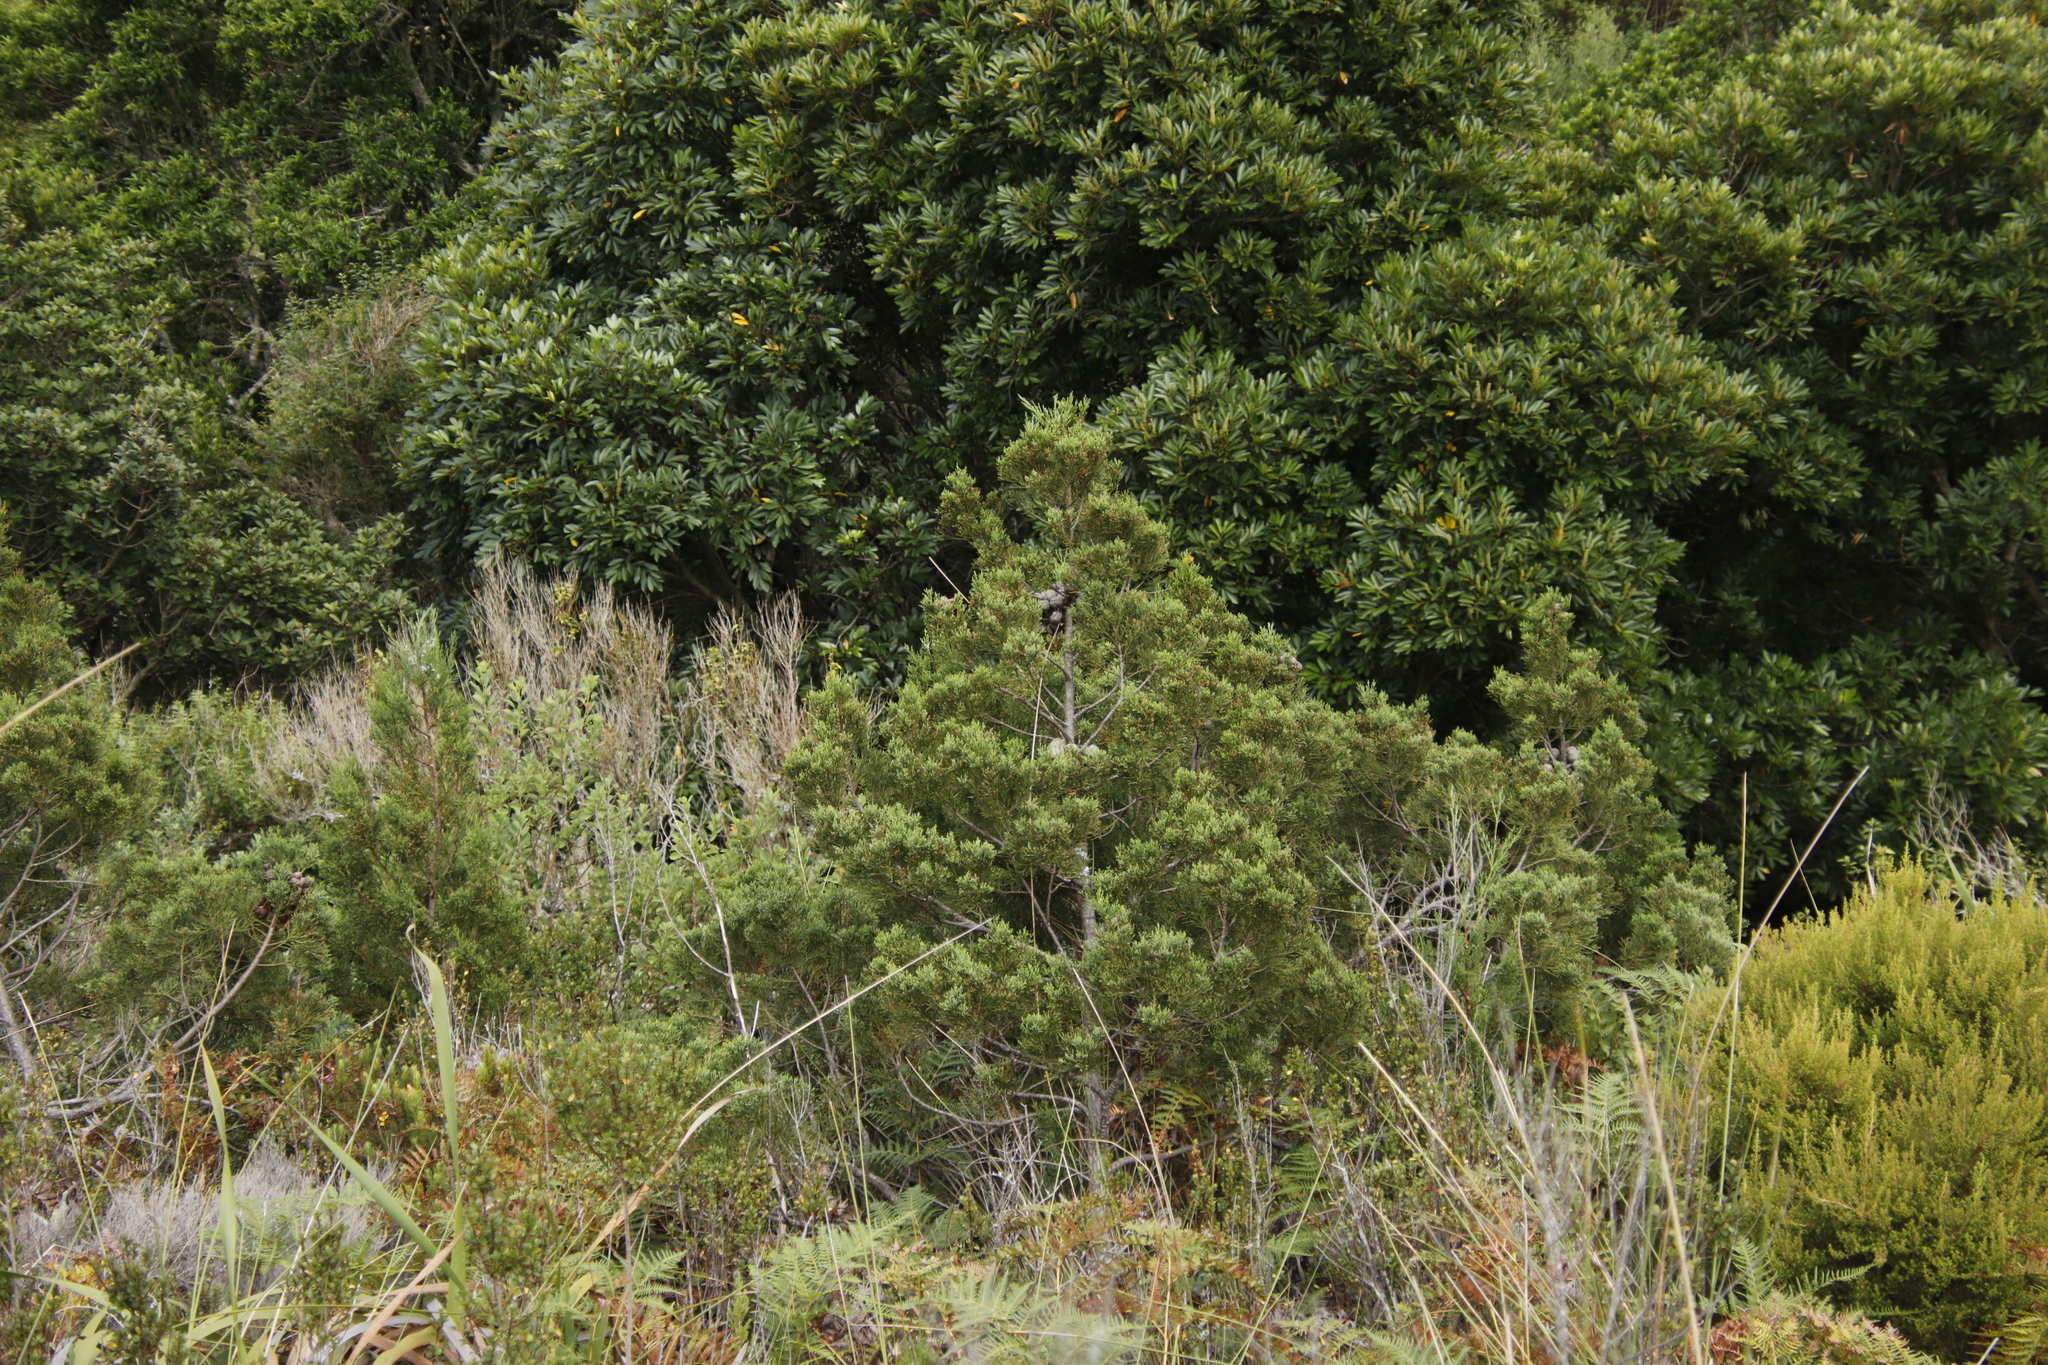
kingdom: Plantae
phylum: Tracheophyta
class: Pinopsida
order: Pinales
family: Cupressaceae
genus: Widdringtonia
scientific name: Widdringtonia nodiflora
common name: Cape cypress
